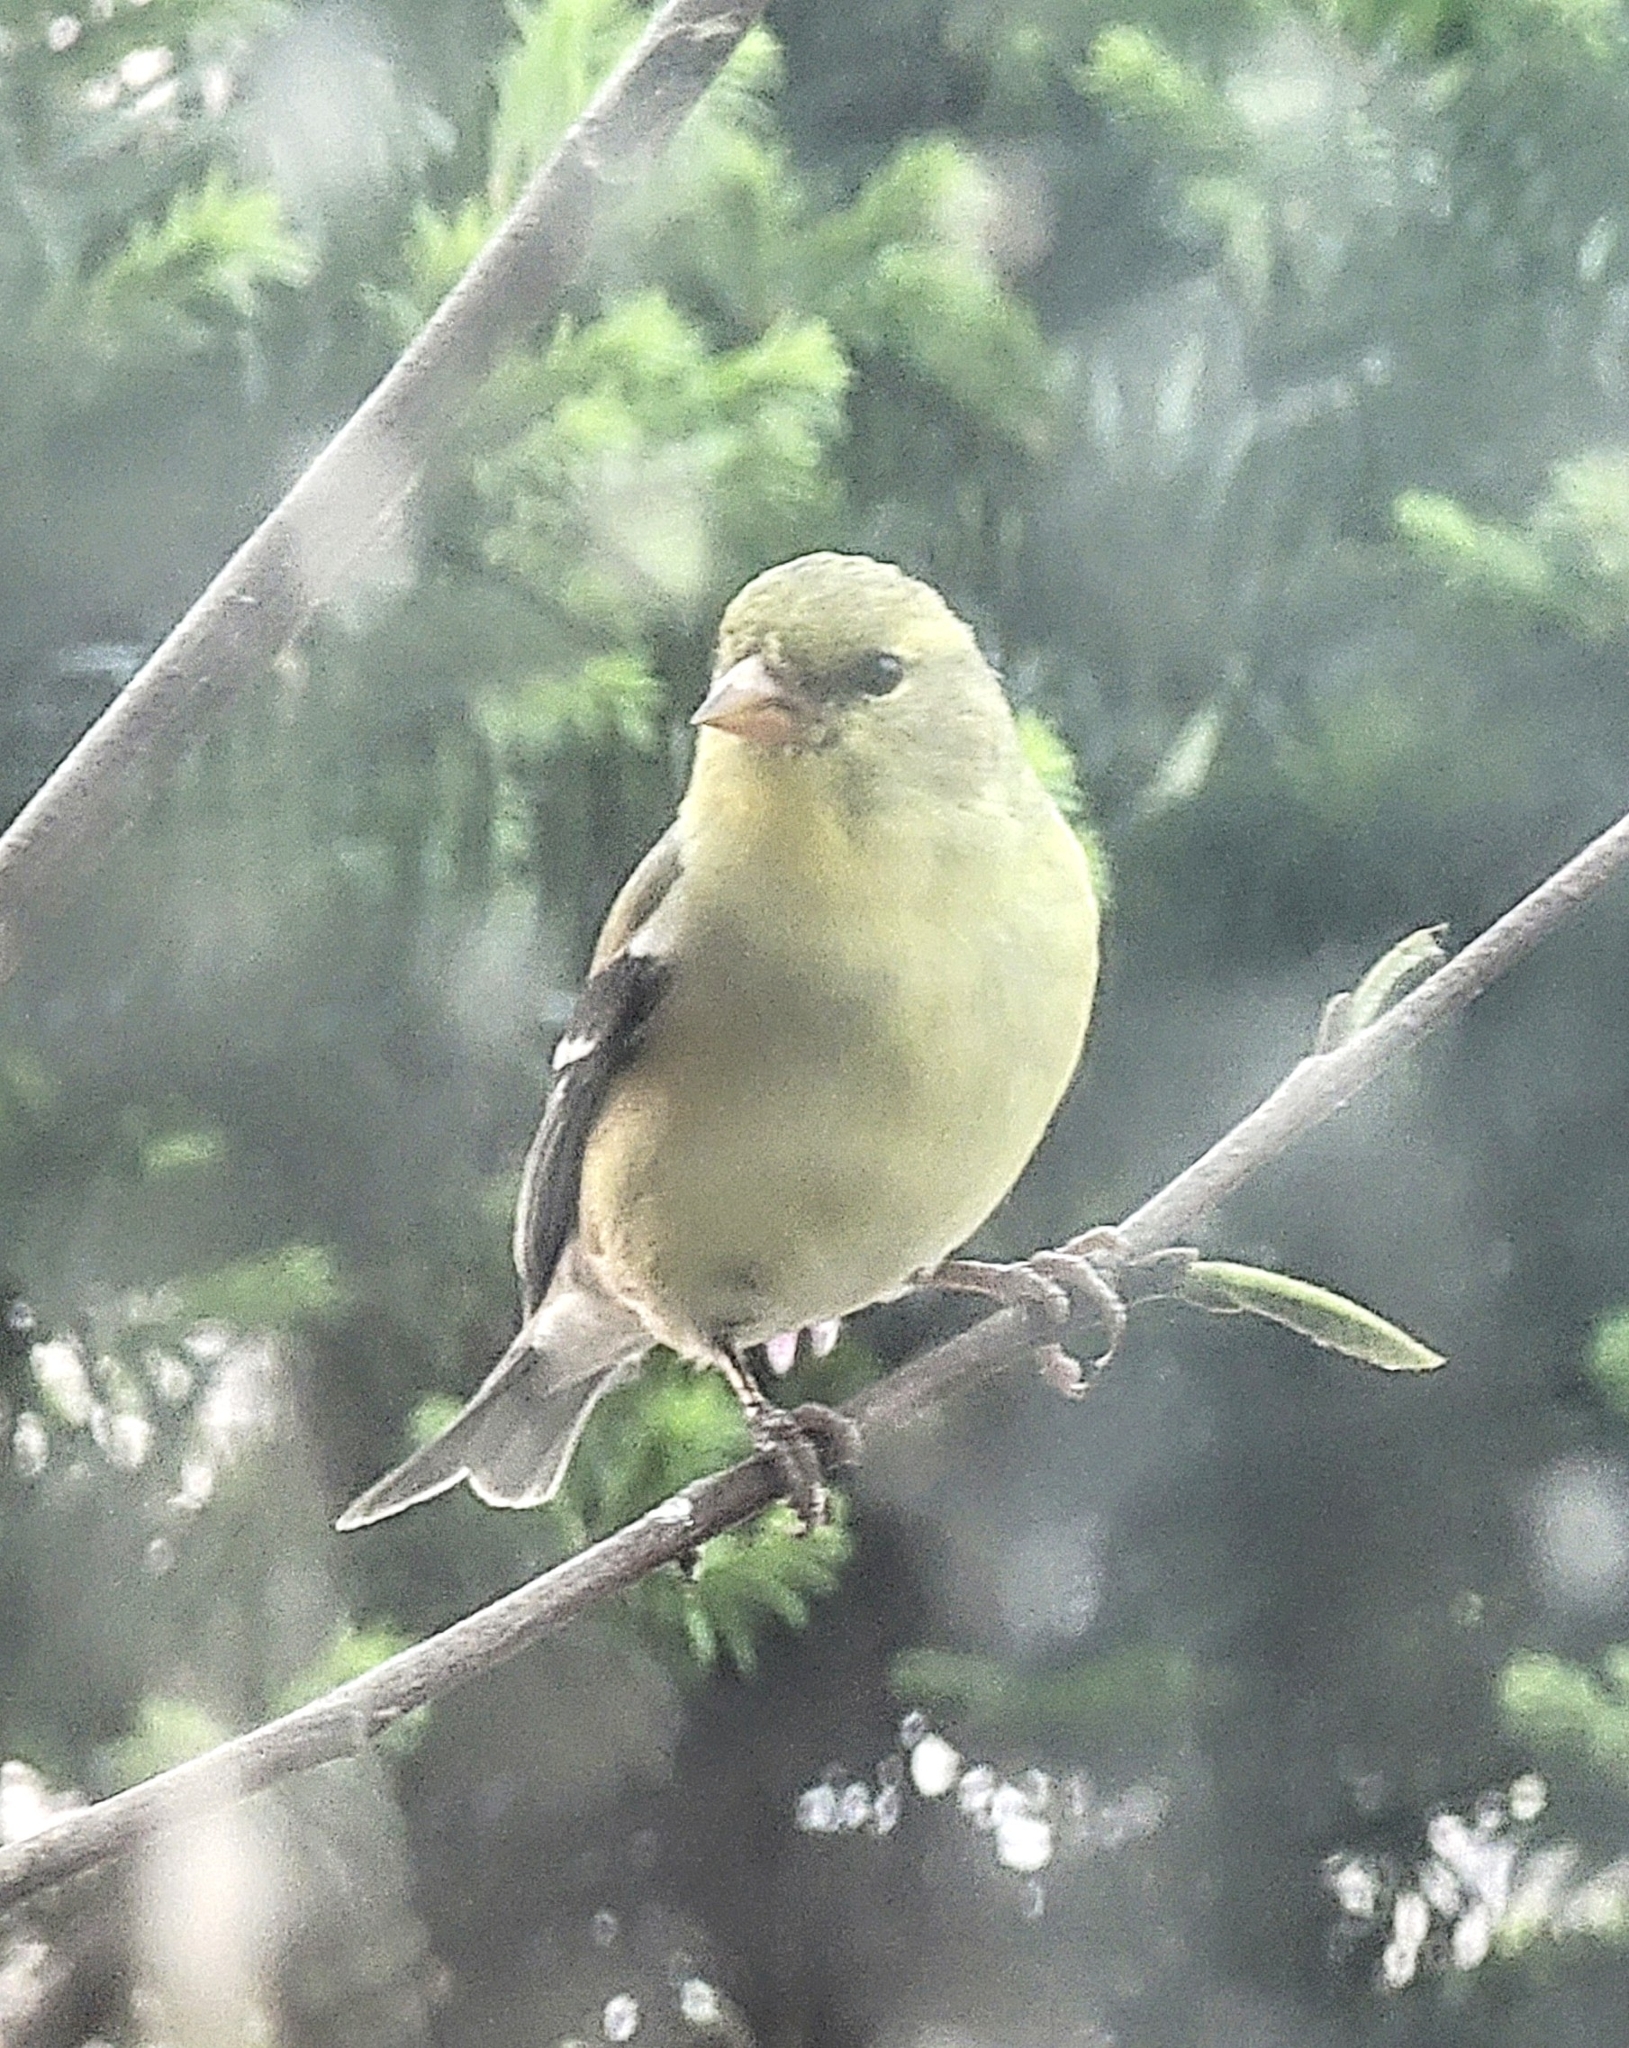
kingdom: Animalia
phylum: Chordata
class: Aves
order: Passeriformes
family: Fringillidae
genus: Spinus
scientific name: Spinus tristis
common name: American goldfinch
